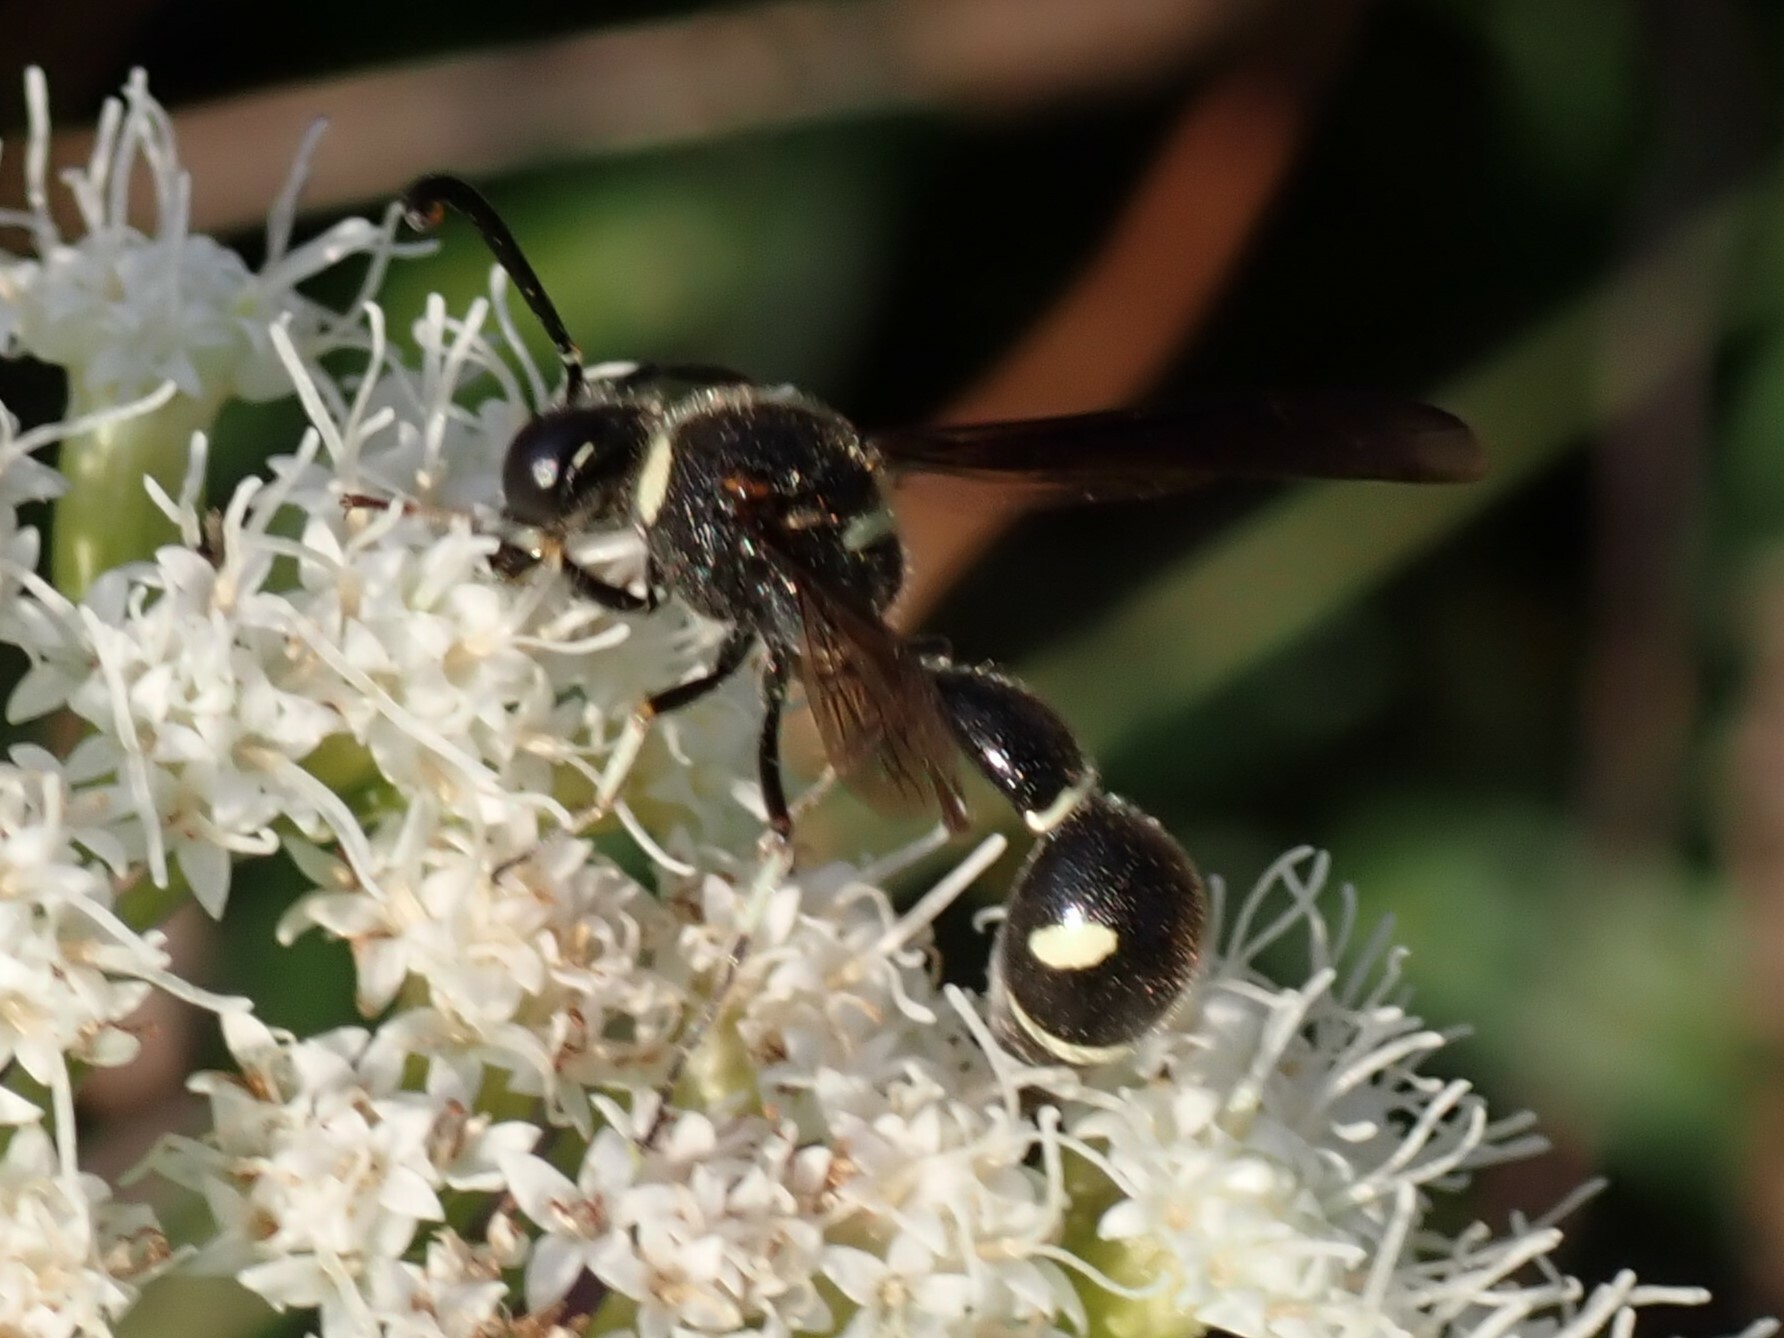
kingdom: Animalia
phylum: Arthropoda
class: Insecta
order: Hymenoptera
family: Vespidae
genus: Eumenes
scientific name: Eumenes fraternus
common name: Fraternal potter wasp
